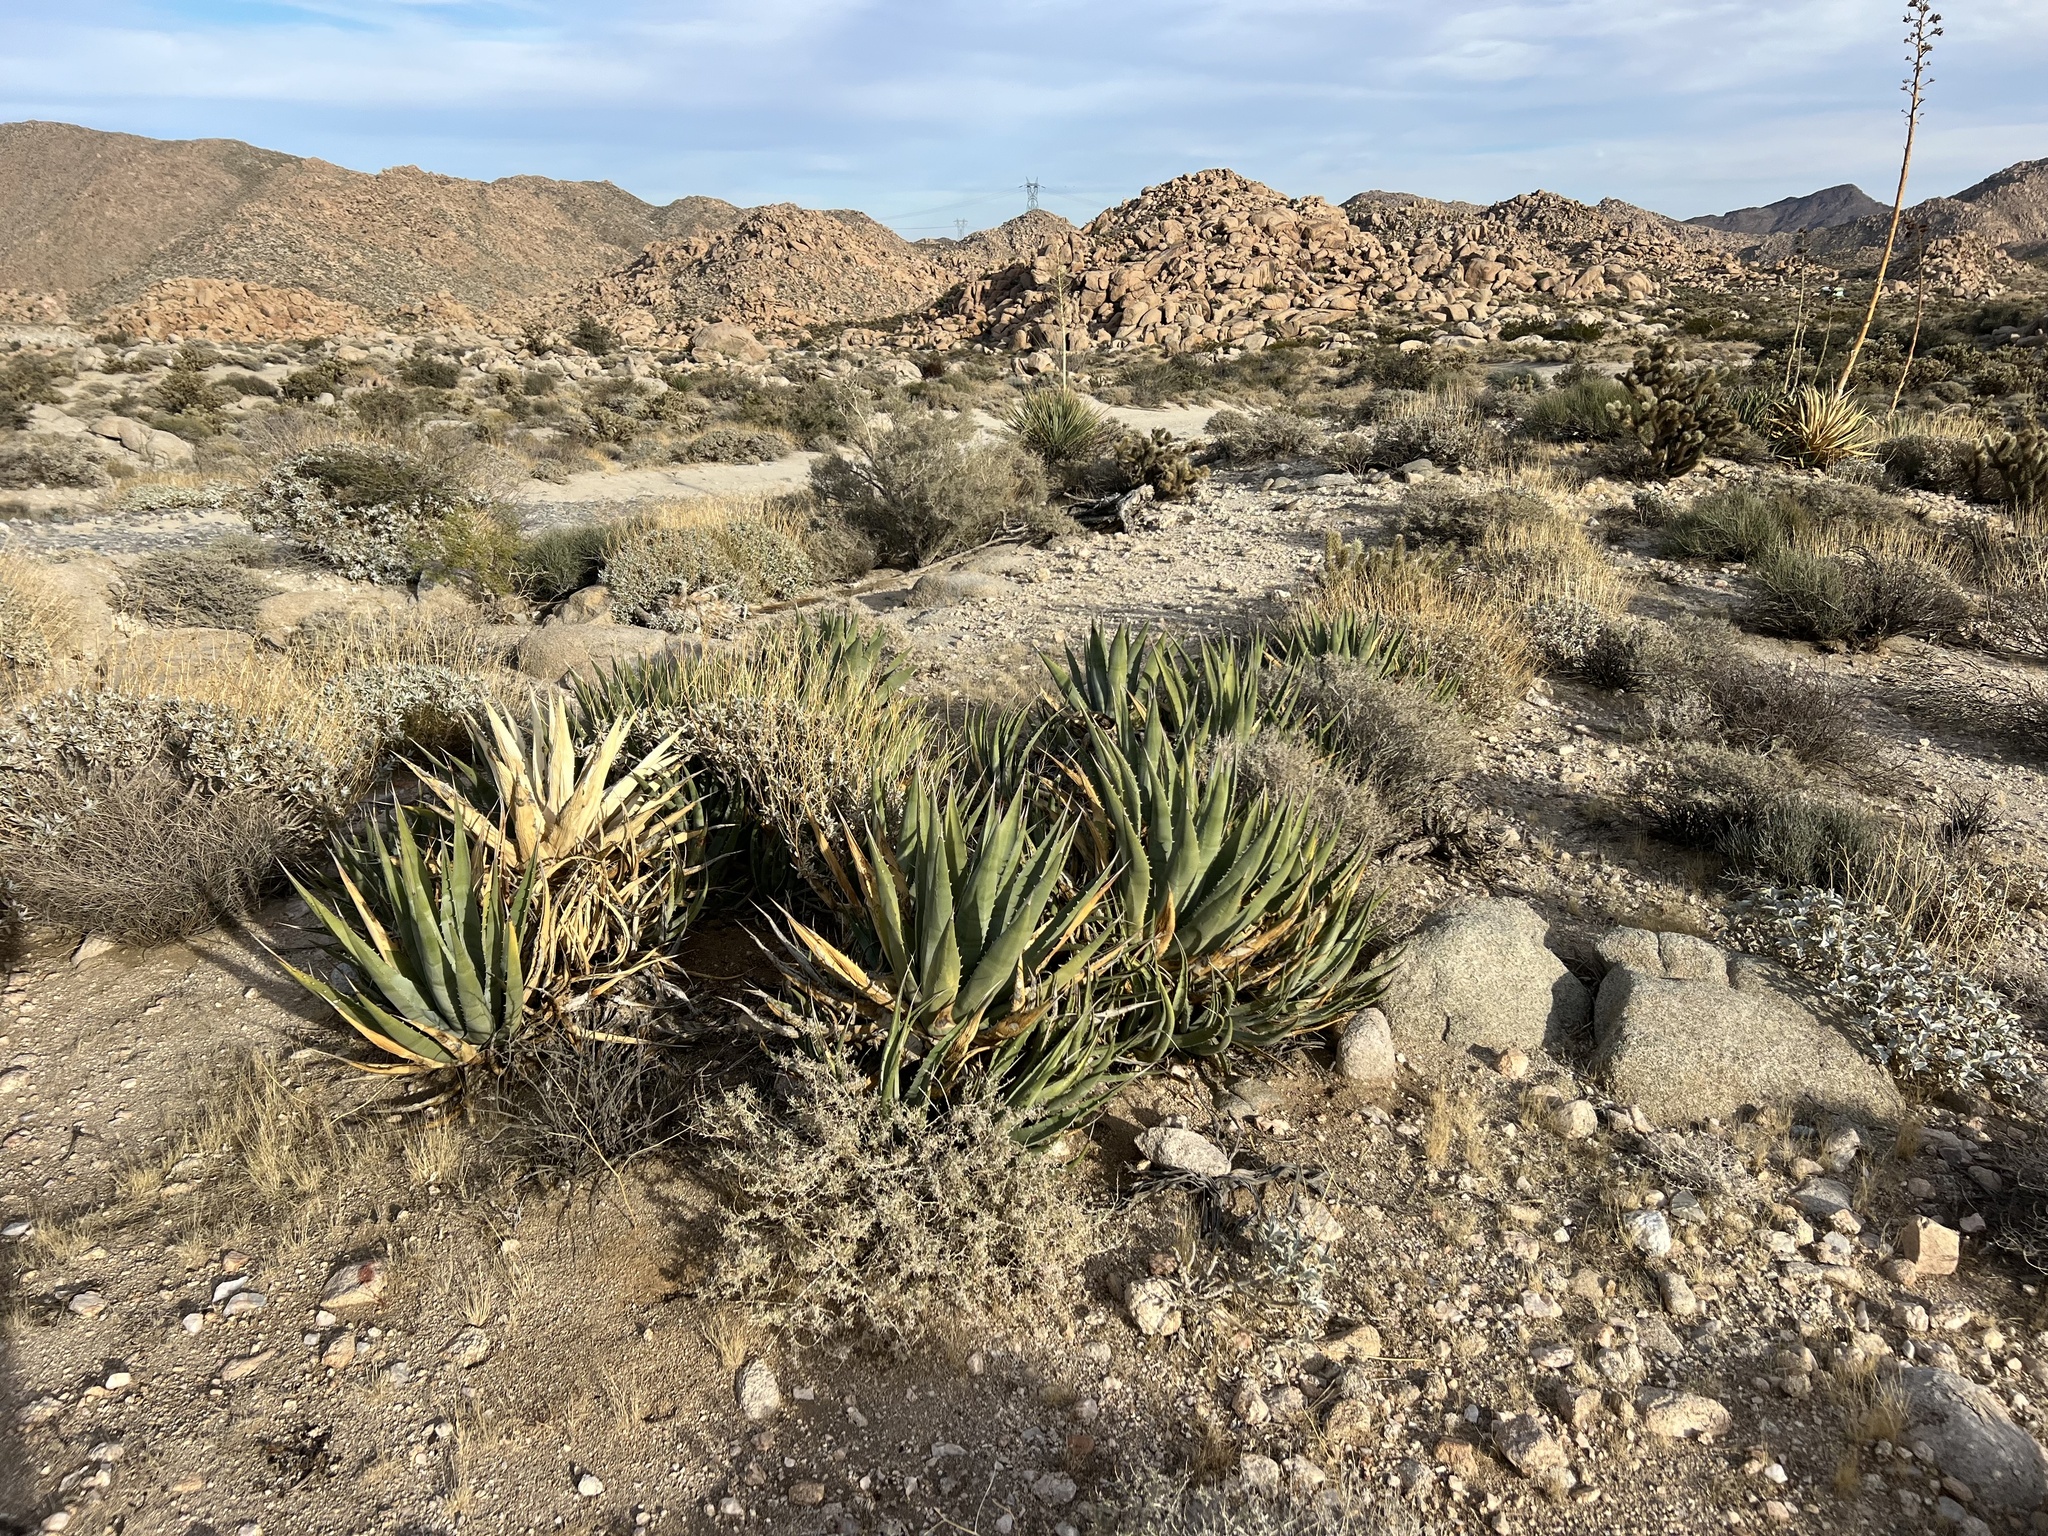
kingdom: Plantae
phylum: Tracheophyta
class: Liliopsida
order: Asparagales
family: Asparagaceae
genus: Agave
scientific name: Agave deserti
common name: Desert agave
